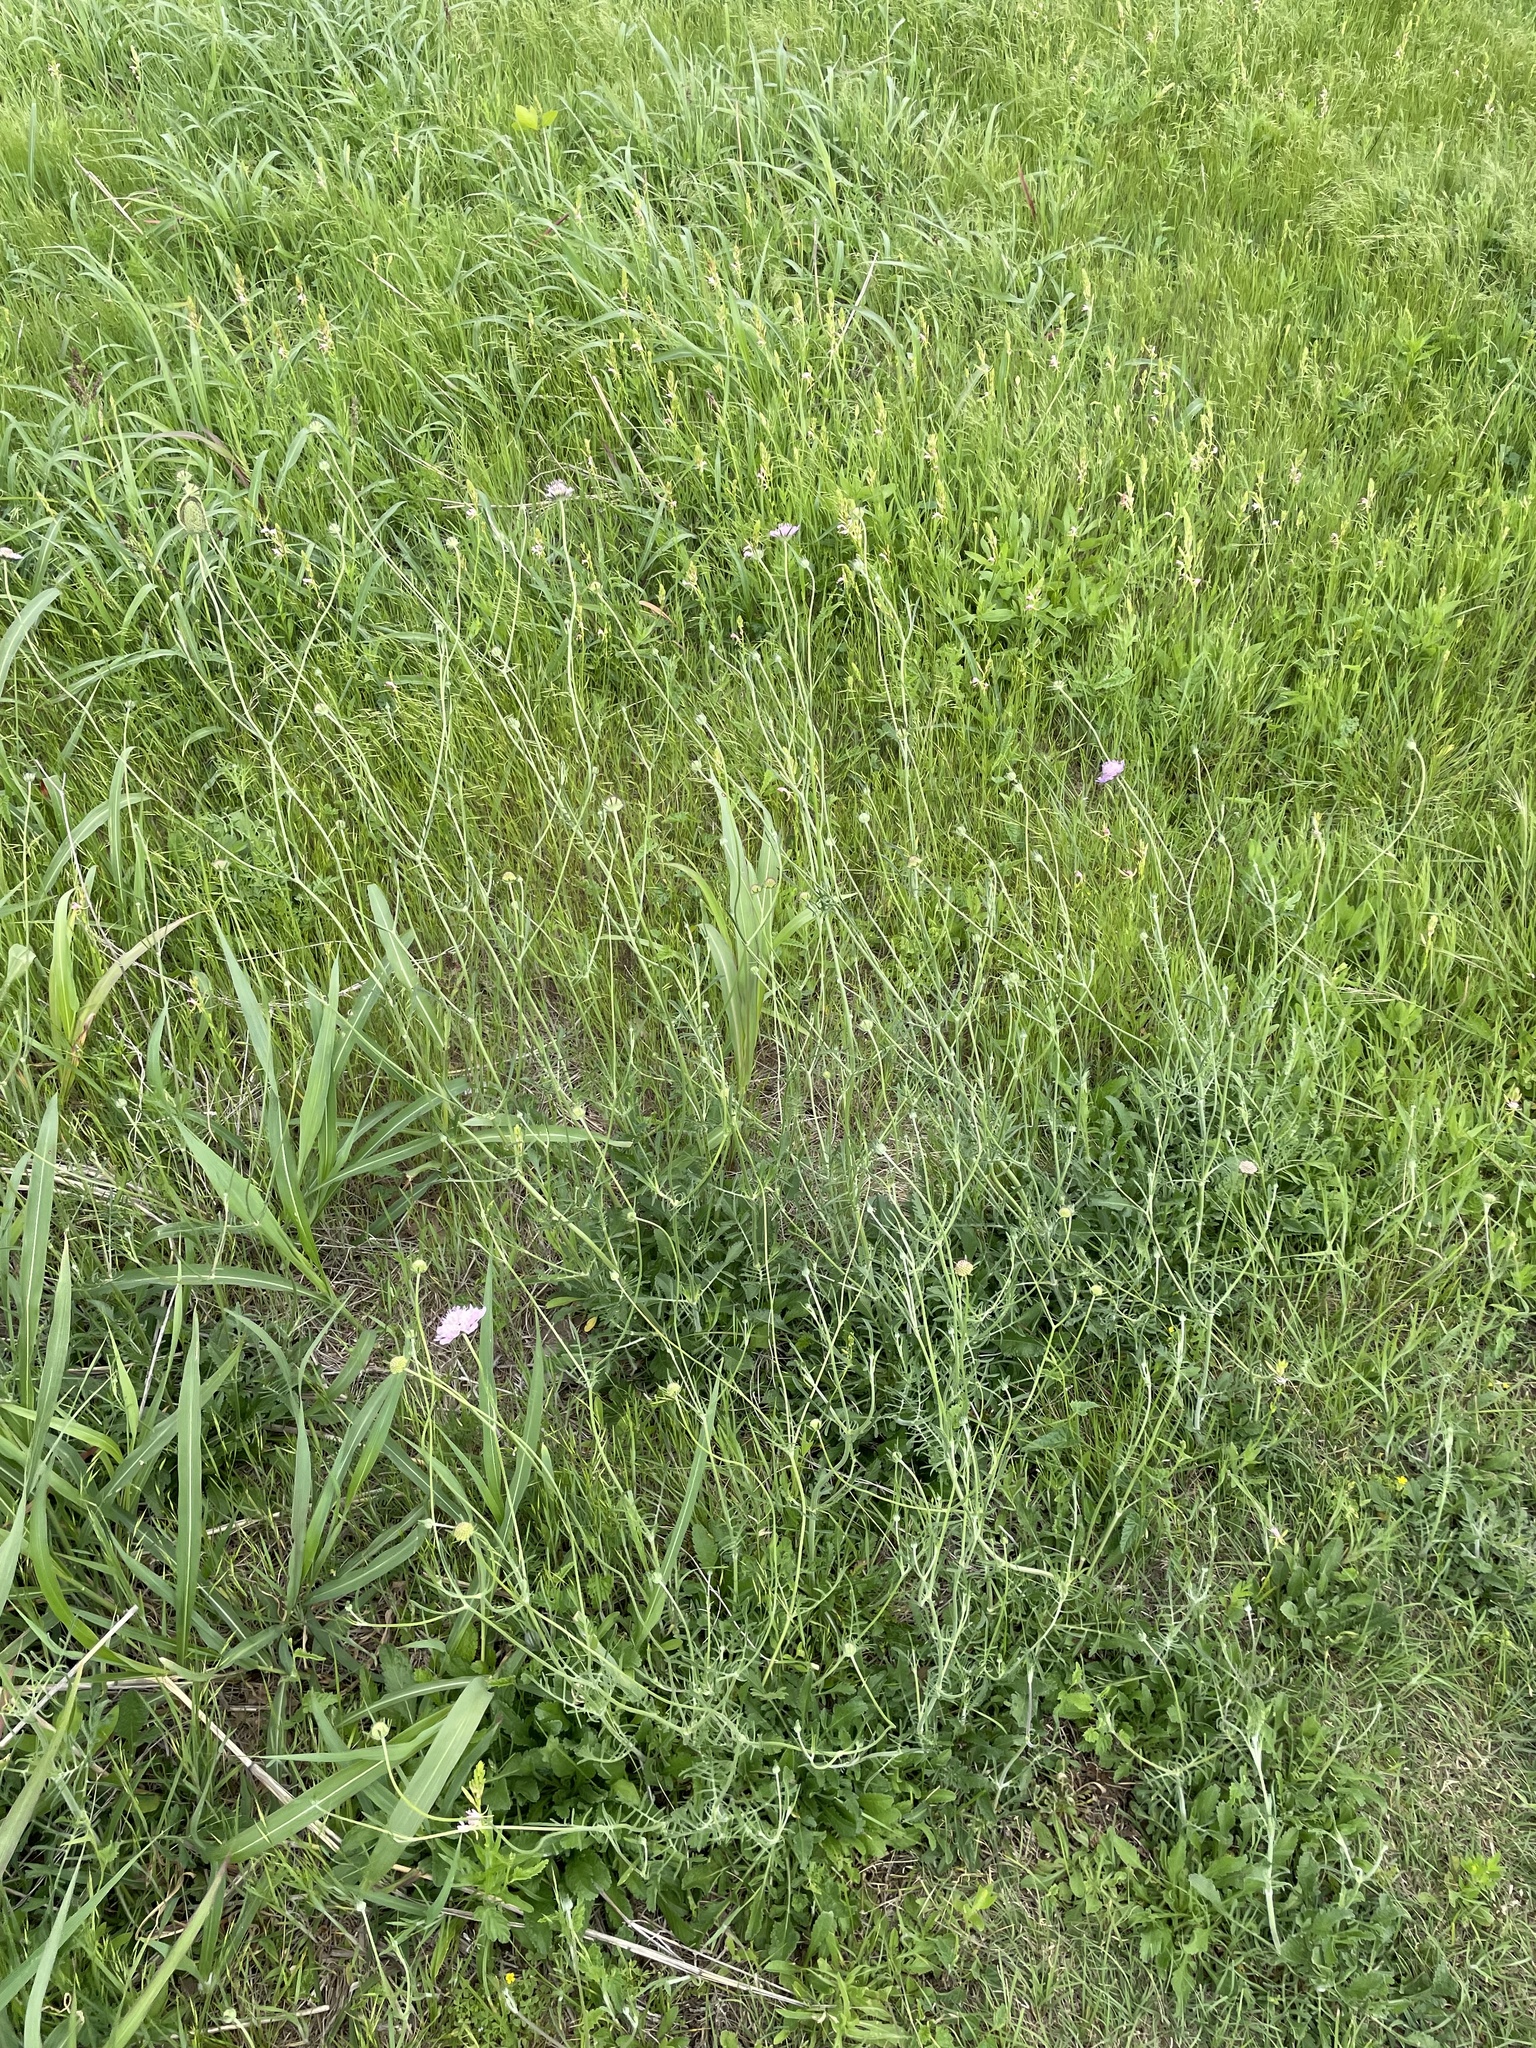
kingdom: Plantae
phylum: Tracheophyta
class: Magnoliopsida
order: Dipsacales
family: Caprifoliaceae
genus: Sixalix
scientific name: Sixalix atropurpurea
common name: Sweet scabious
